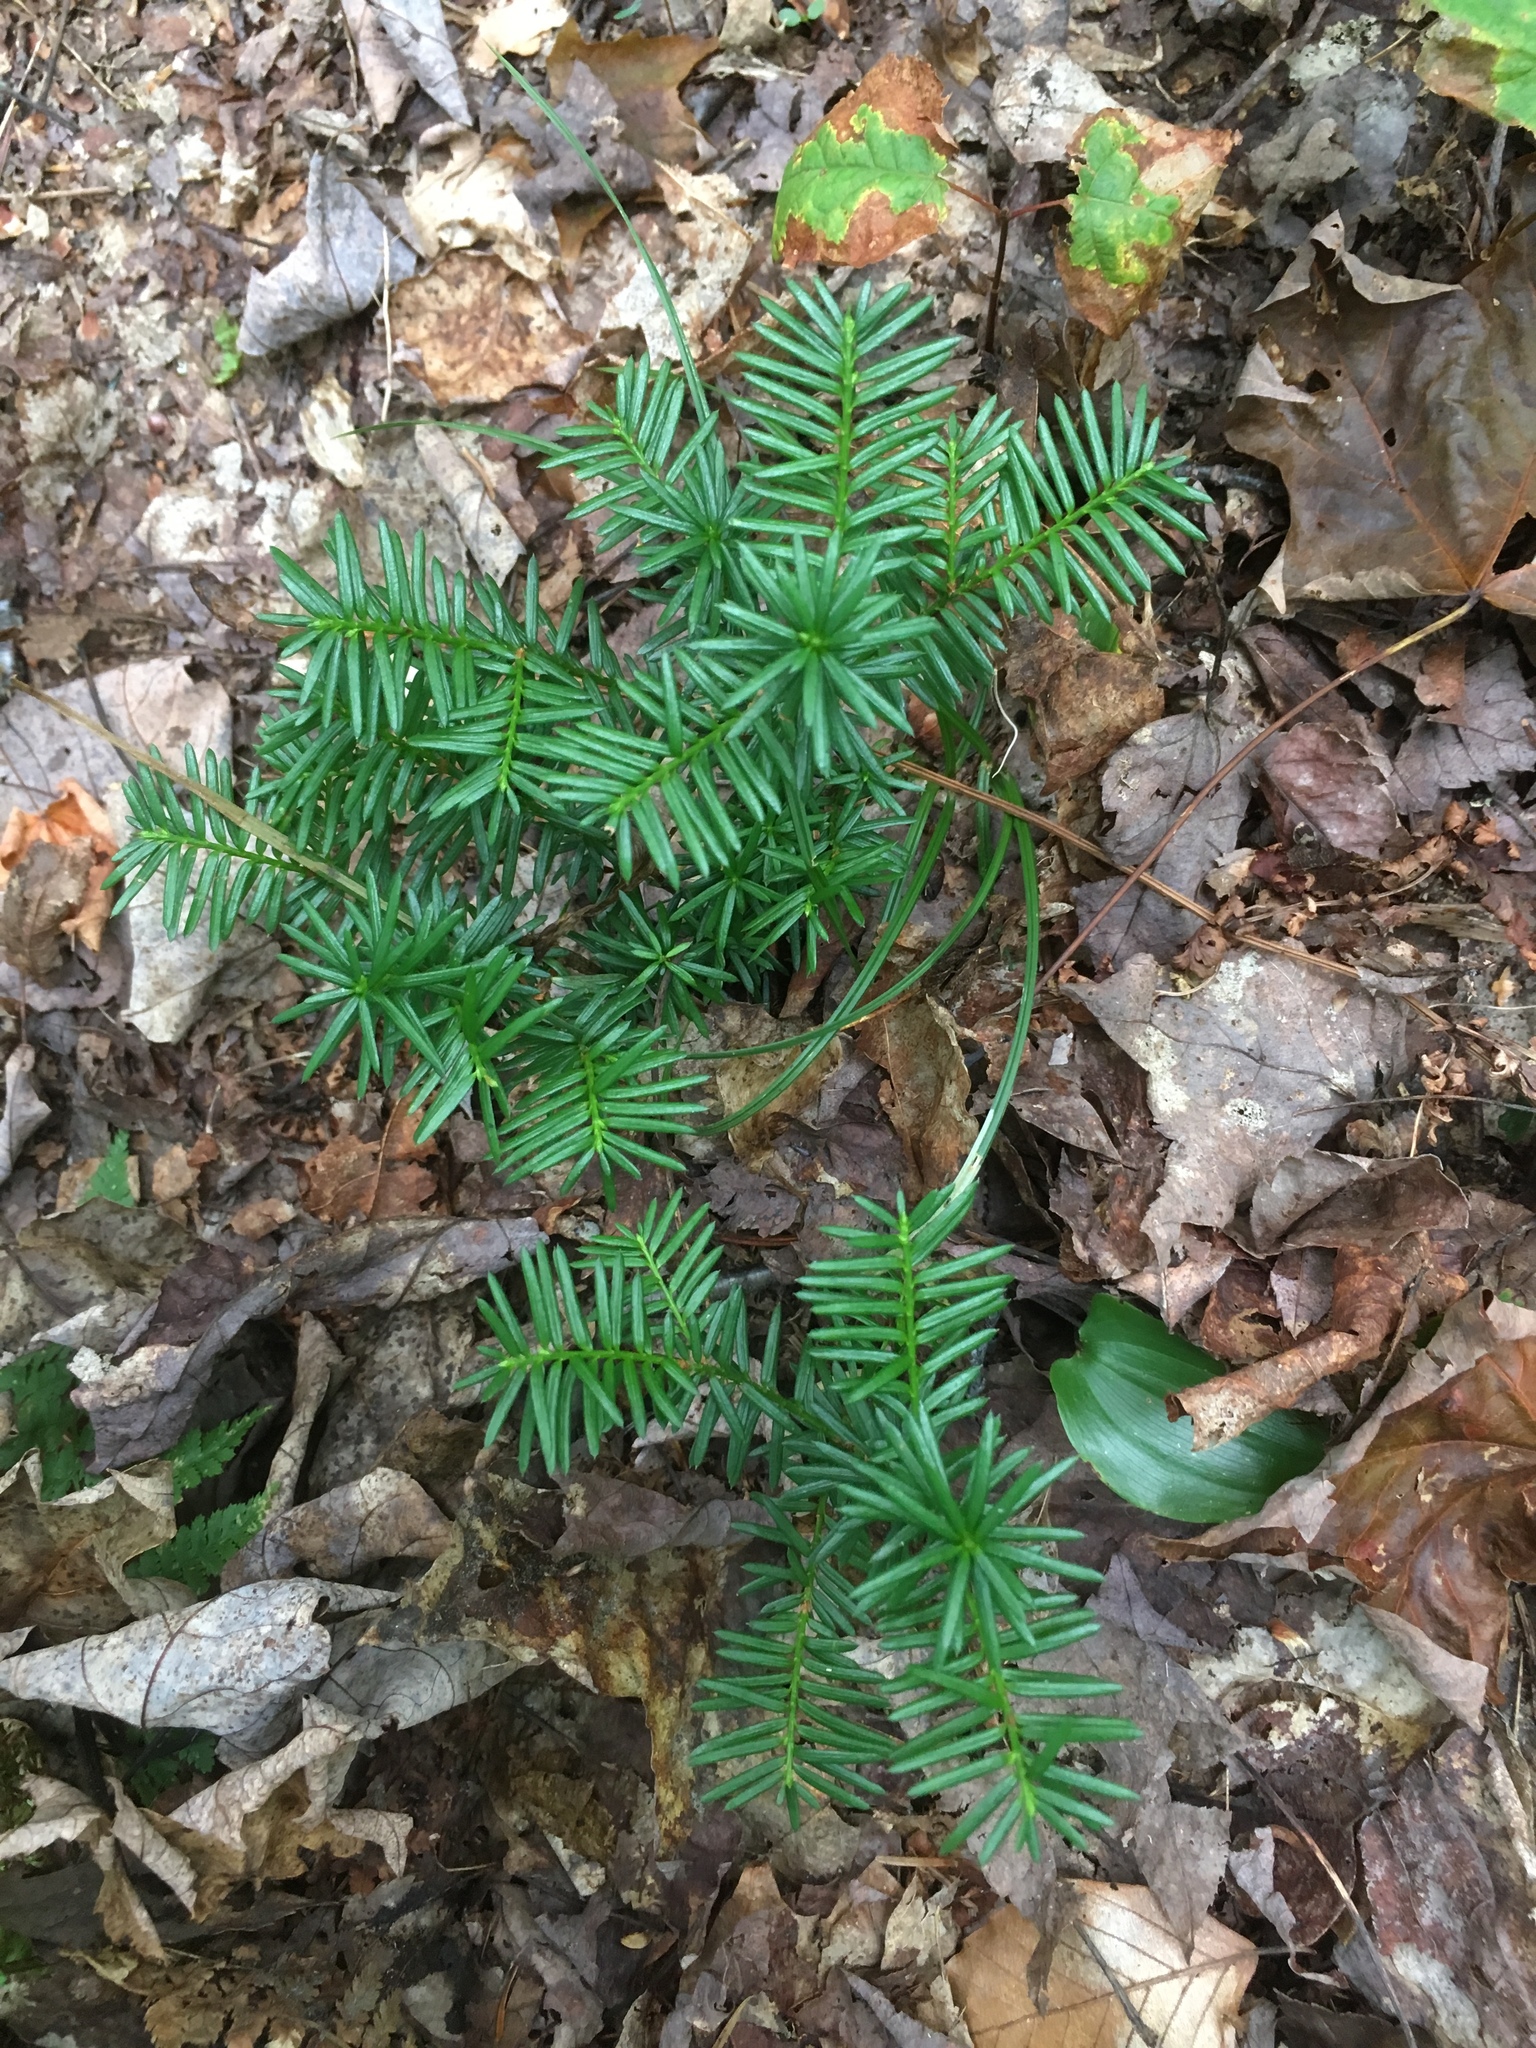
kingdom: Plantae
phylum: Tracheophyta
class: Pinopsida
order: Pinales
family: Taxaceae
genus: Taxus
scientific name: Taxus canadensis
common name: American yew
